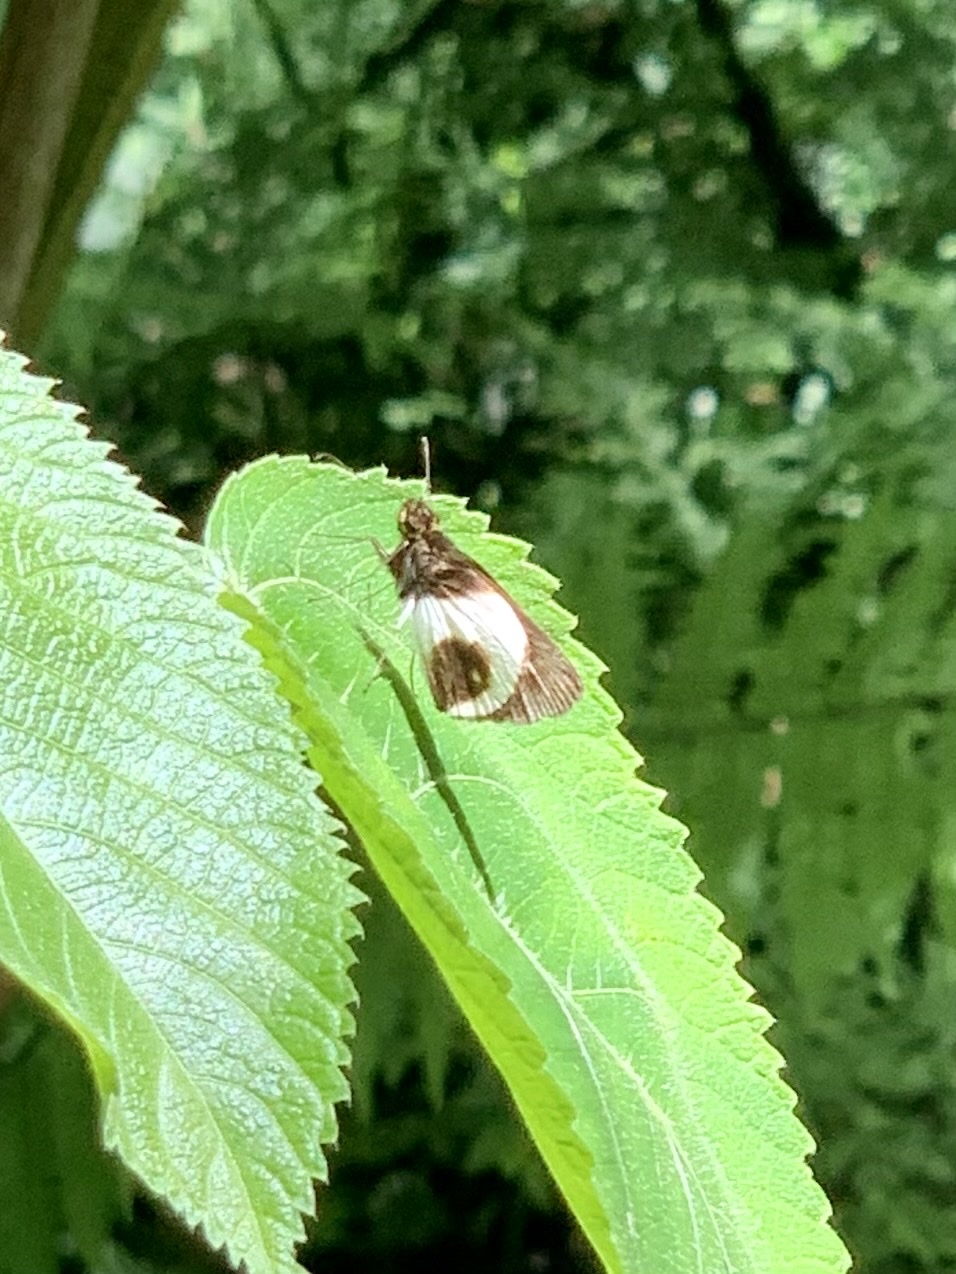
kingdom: Animalia
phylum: Arthropoda
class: Insecta
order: Lepidoptera
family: Hesperiidae
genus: Mnestheus
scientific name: Mnestheus ittona
